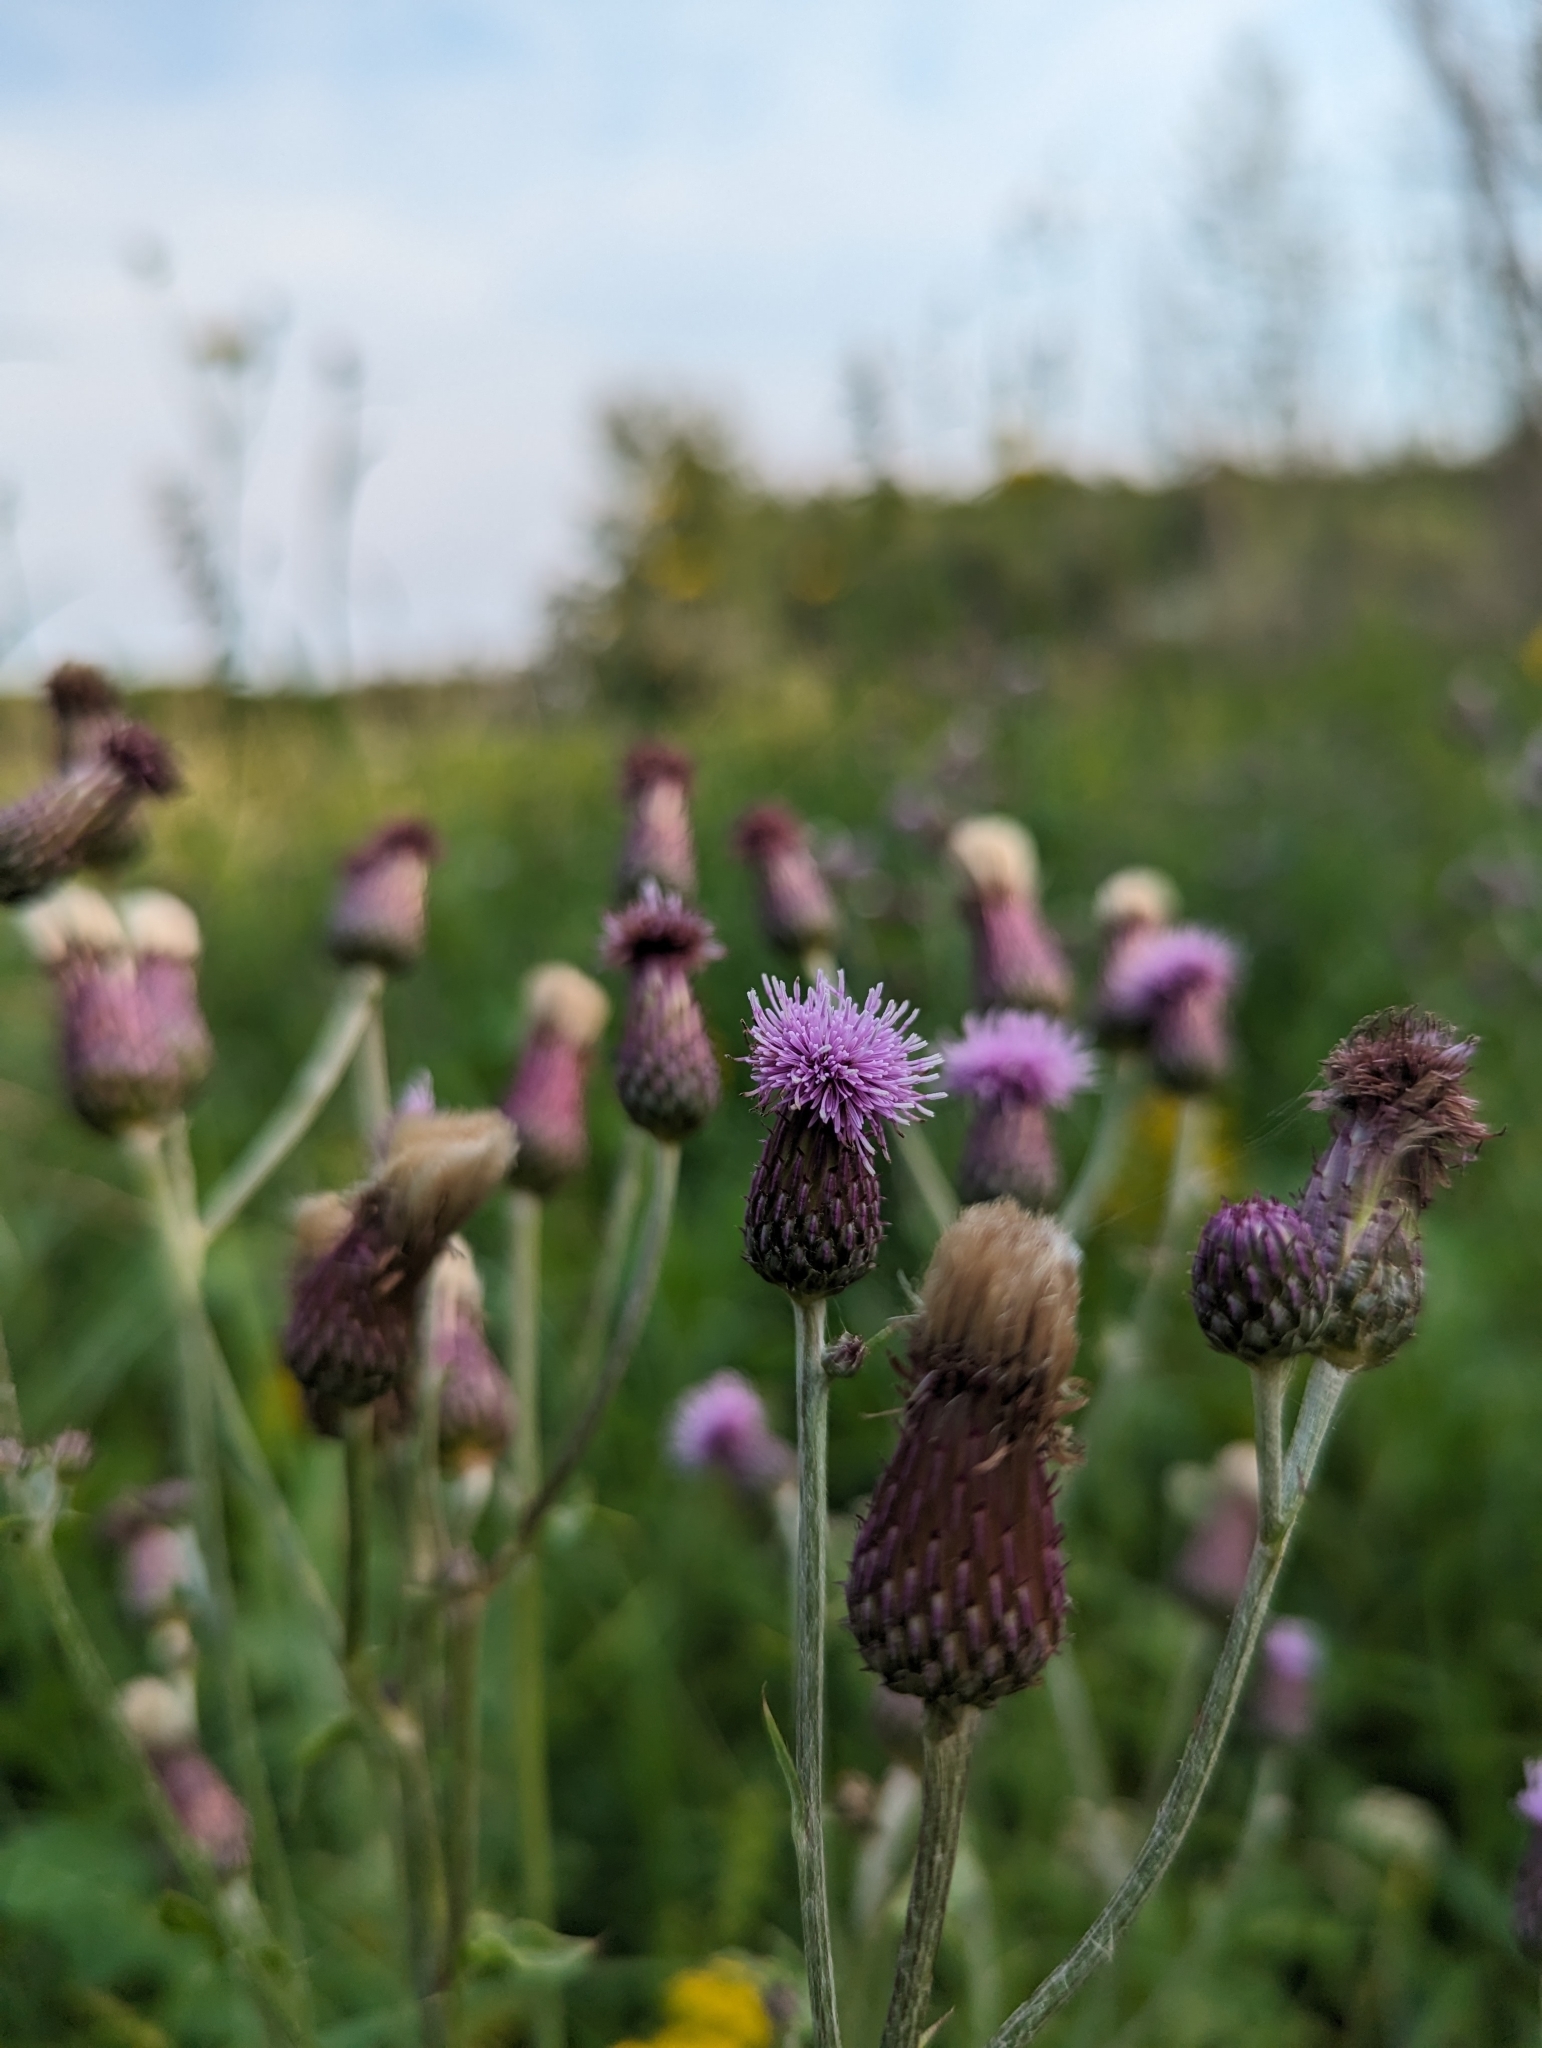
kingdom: Plantae
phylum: Tracheophyta
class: Magnoliopsida
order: Asterales
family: Asteraceae
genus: Cirsium
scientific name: Cirsium arvense
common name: Creeping thistle
